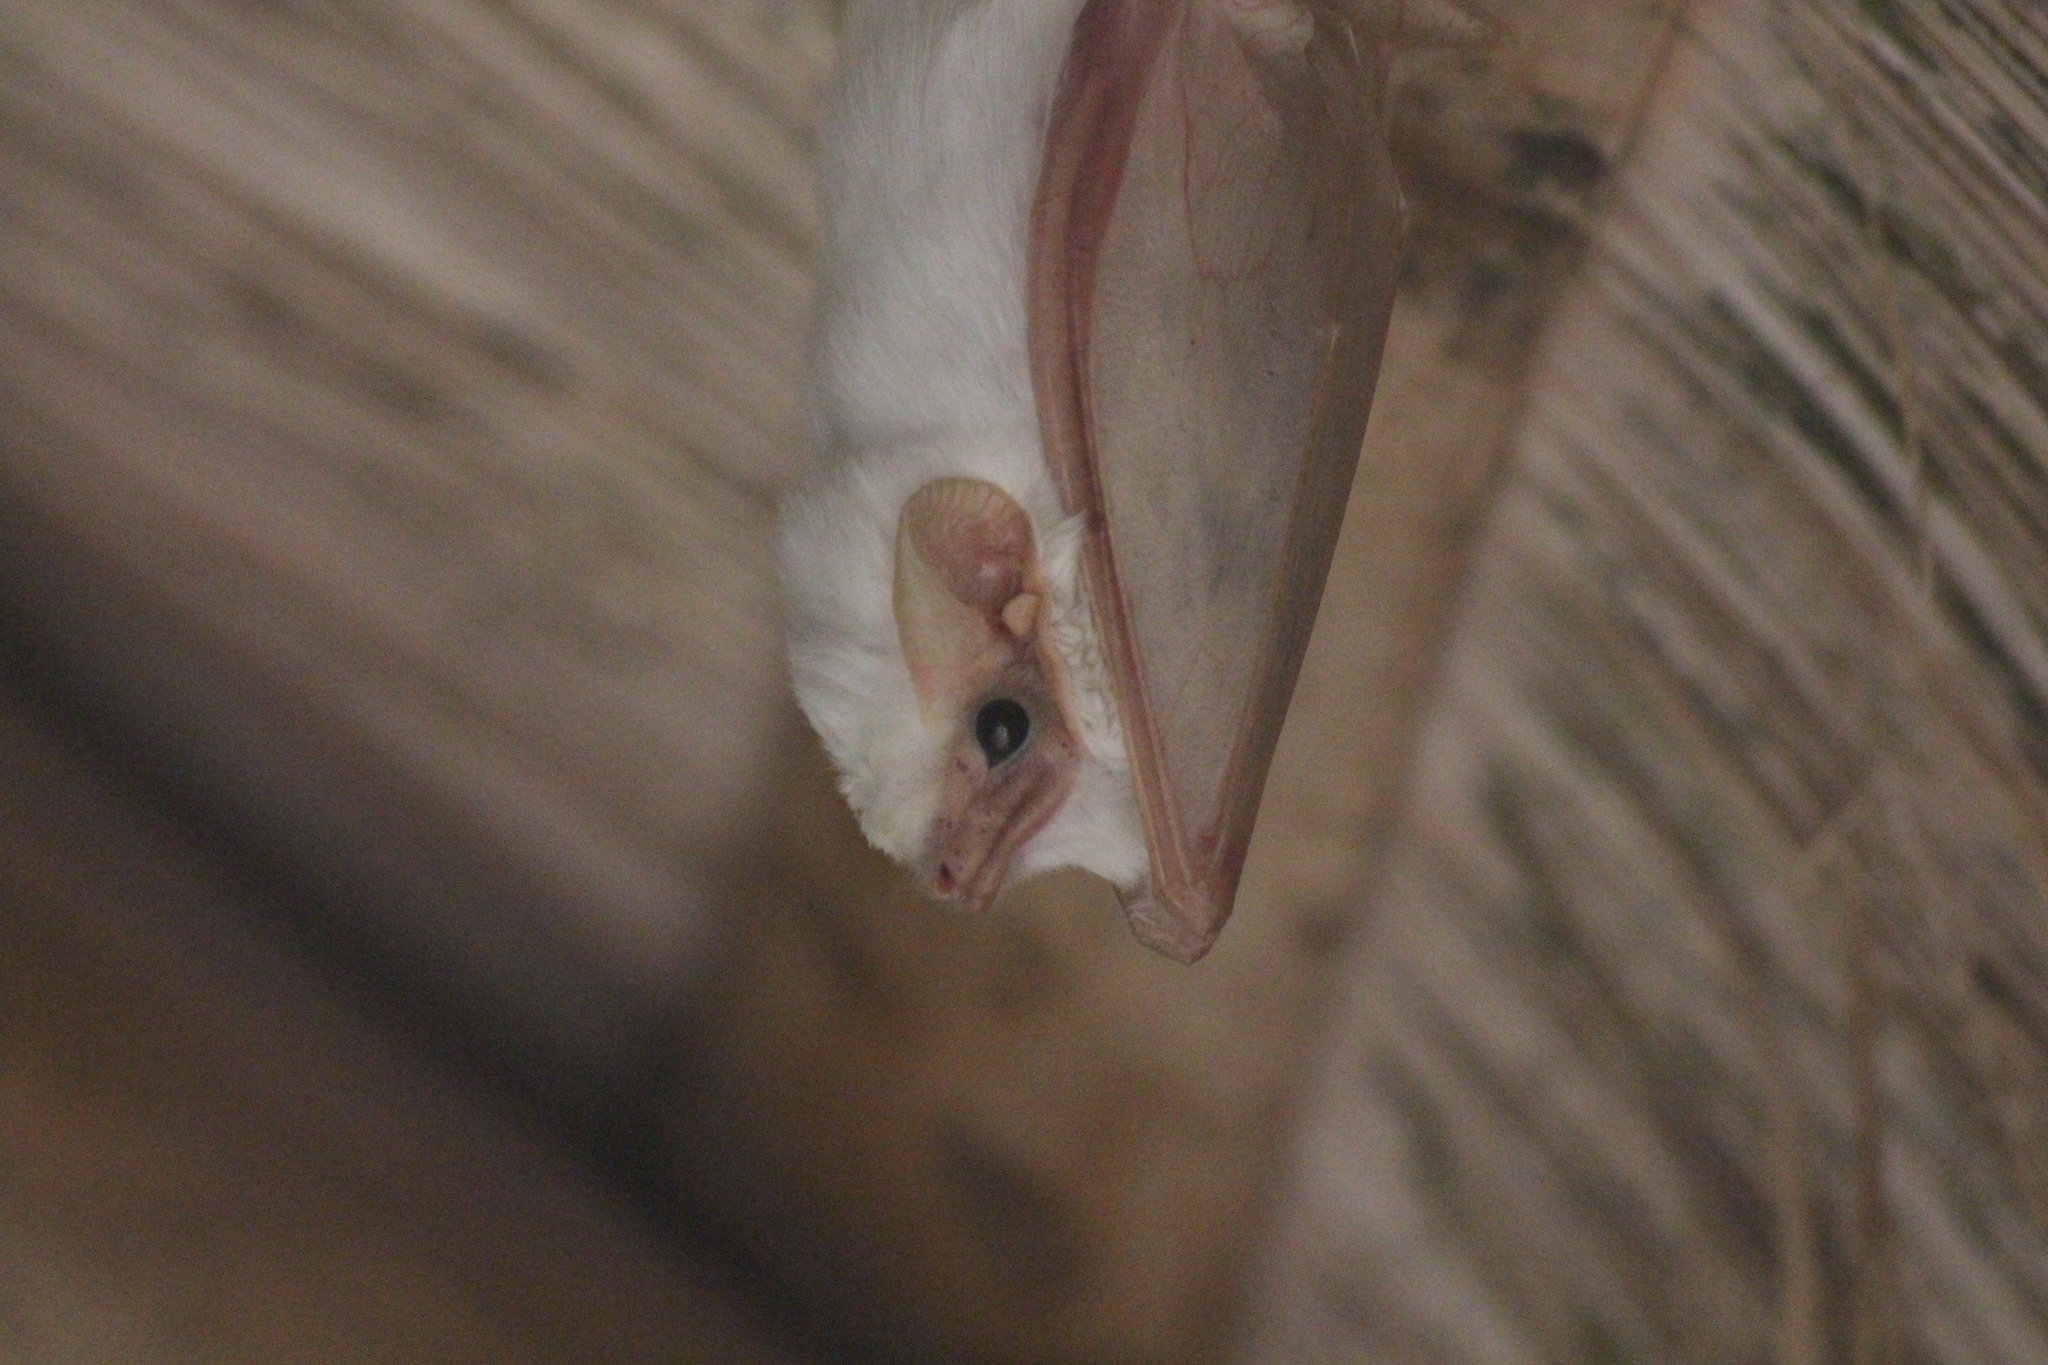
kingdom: Animalia
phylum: Chordata
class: Mammalia
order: Chiroptera
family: Emballonuridae
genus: Diclidurus
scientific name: Diclidurus albus
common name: Northern ghost bat
